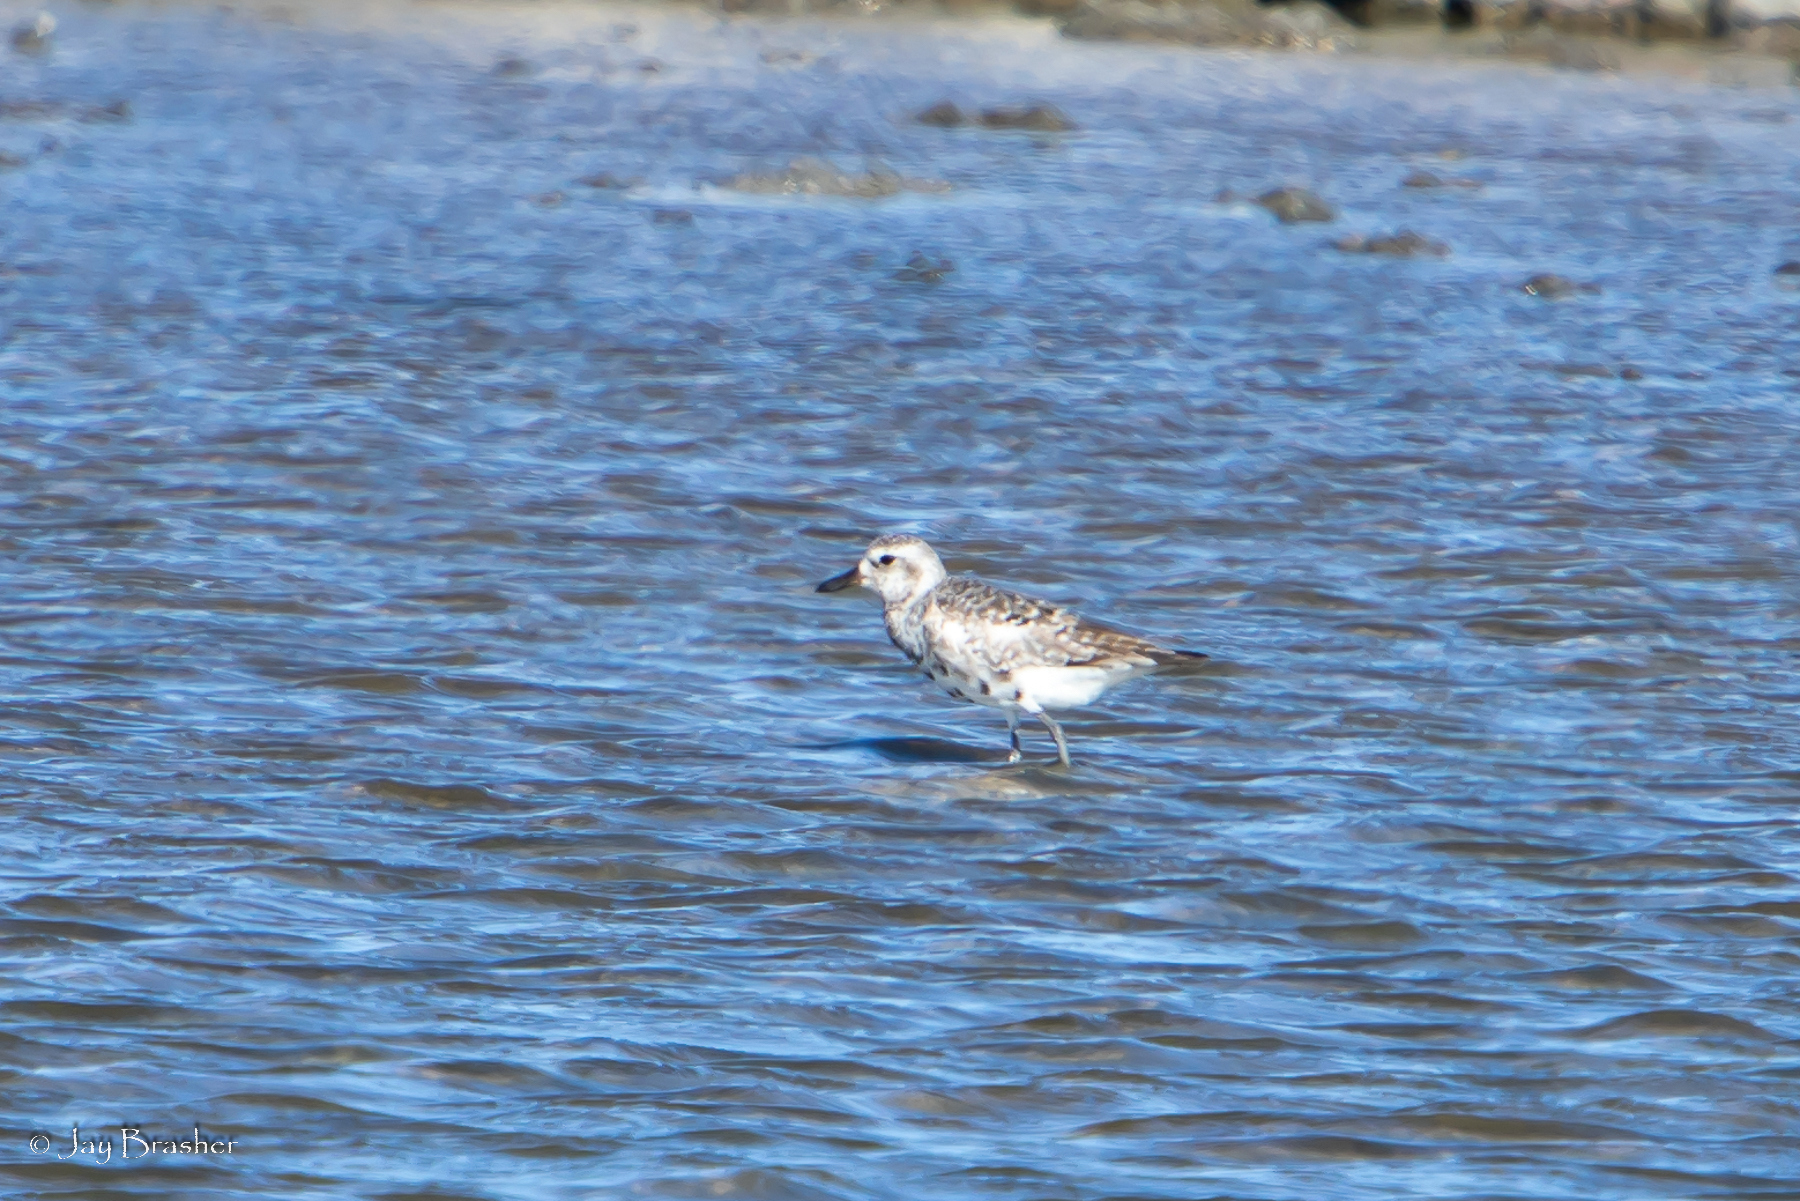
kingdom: Animalia
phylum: Chordata
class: Aves
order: Charadriiformes
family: Charadriidae
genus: Pluvialis
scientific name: Pluvialis squatarola
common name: Grey plover
